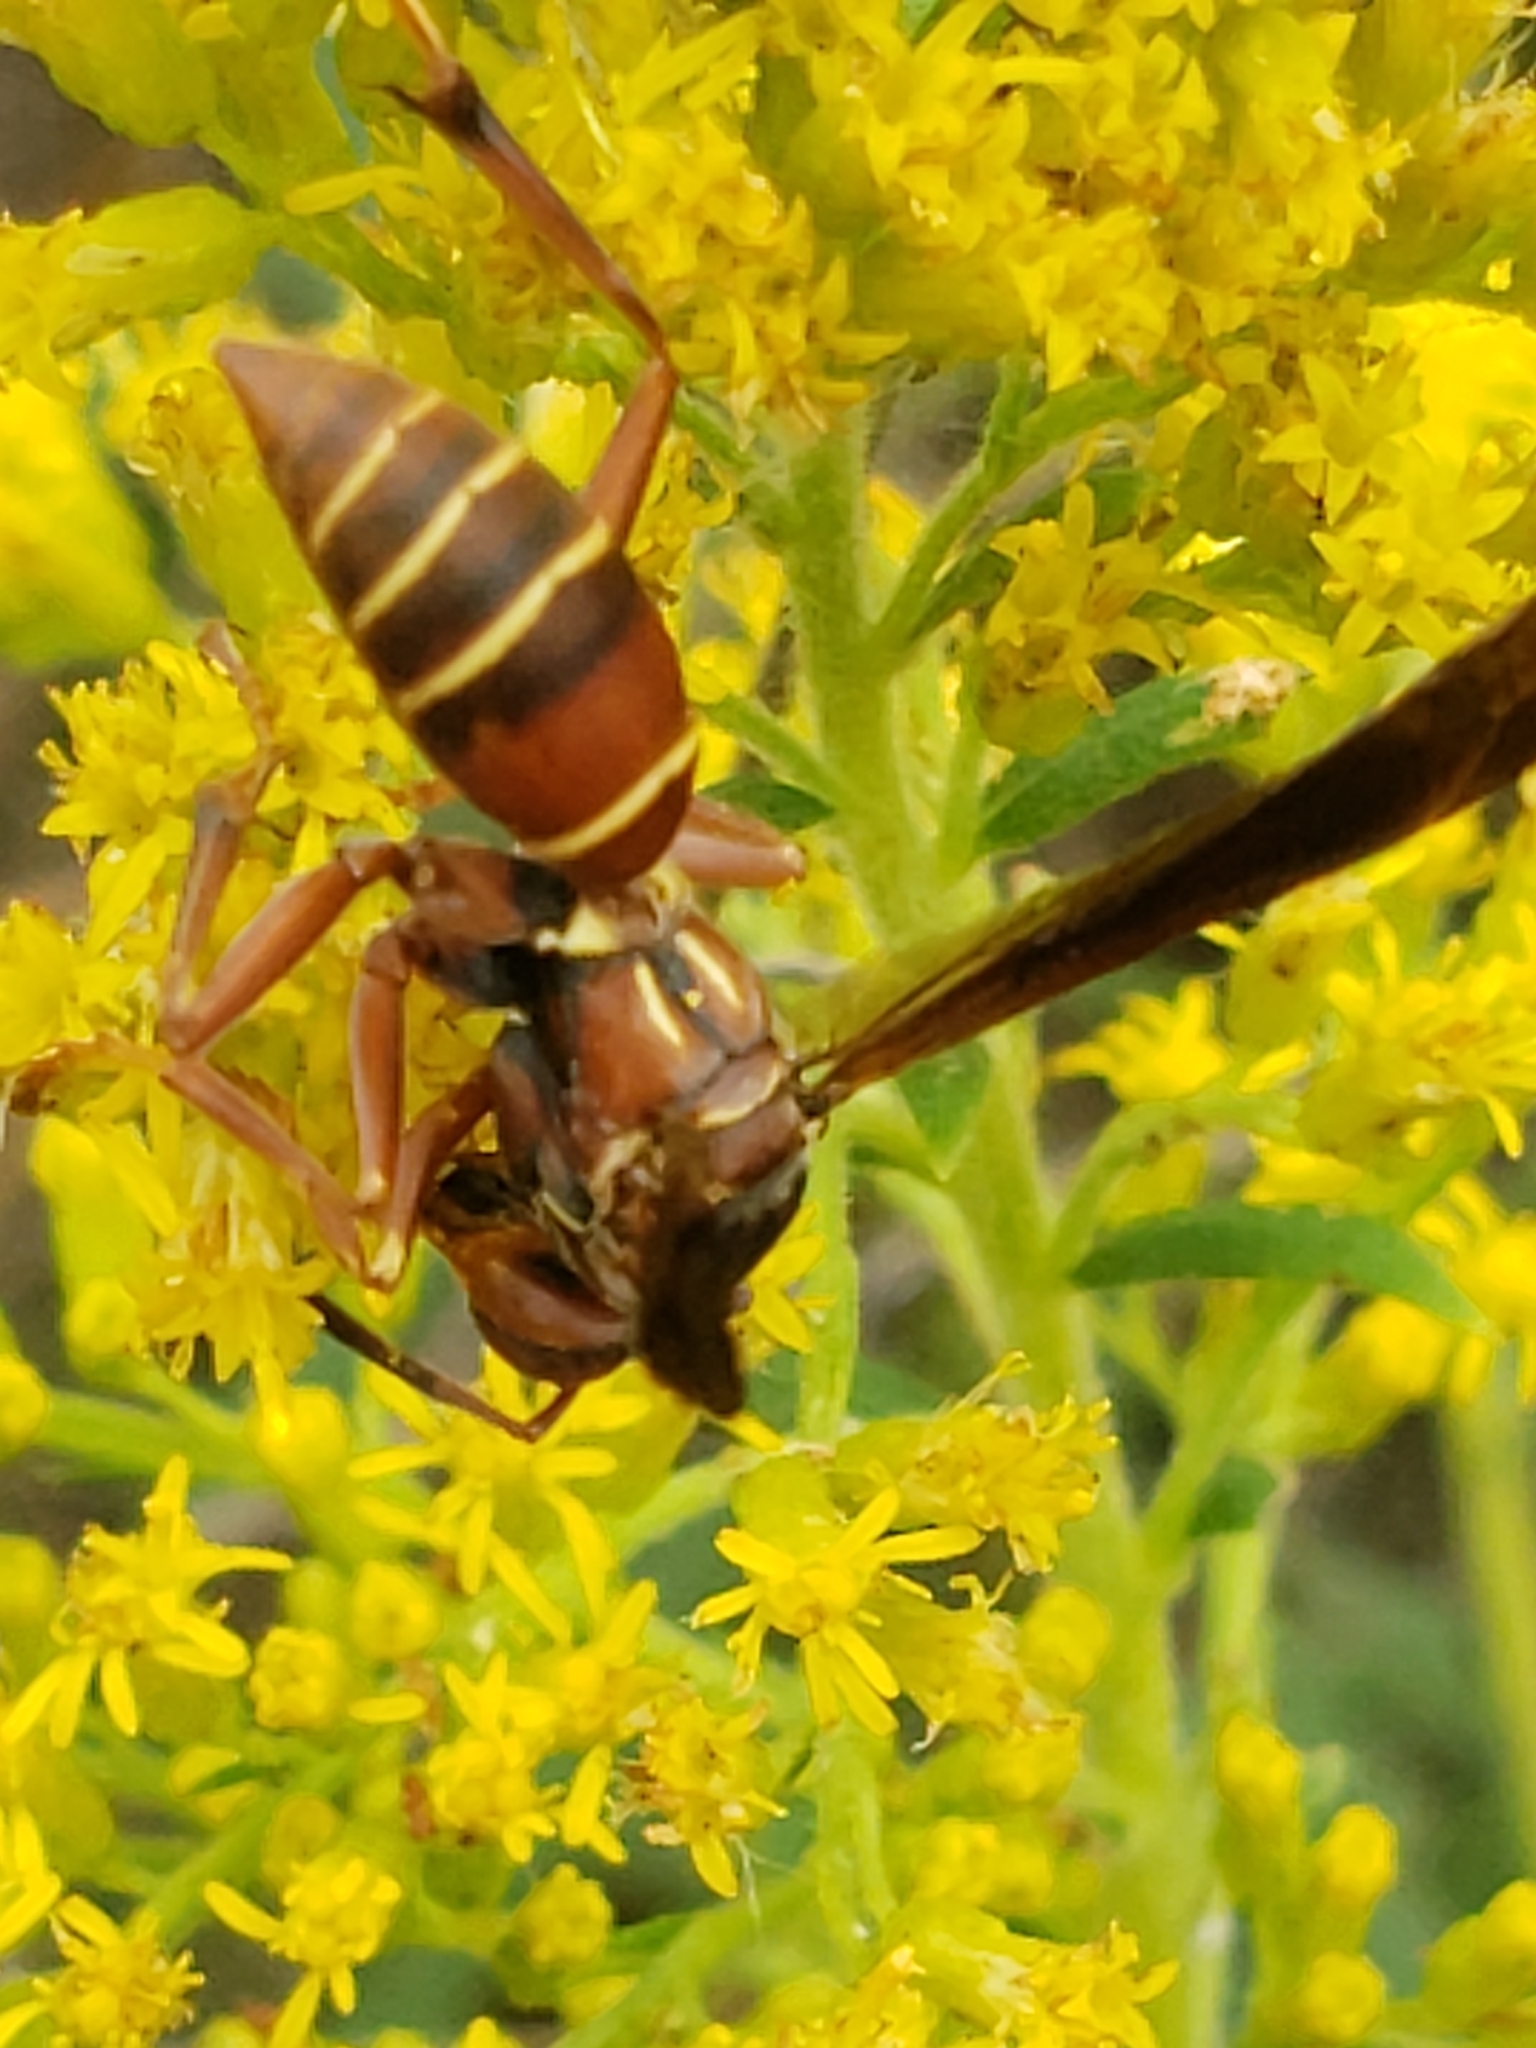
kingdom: Animalia
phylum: Arthropoda
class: Insecta
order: Hymenoptera
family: Vespidae
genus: Fuscopolistes
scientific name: Fuscopolistes
